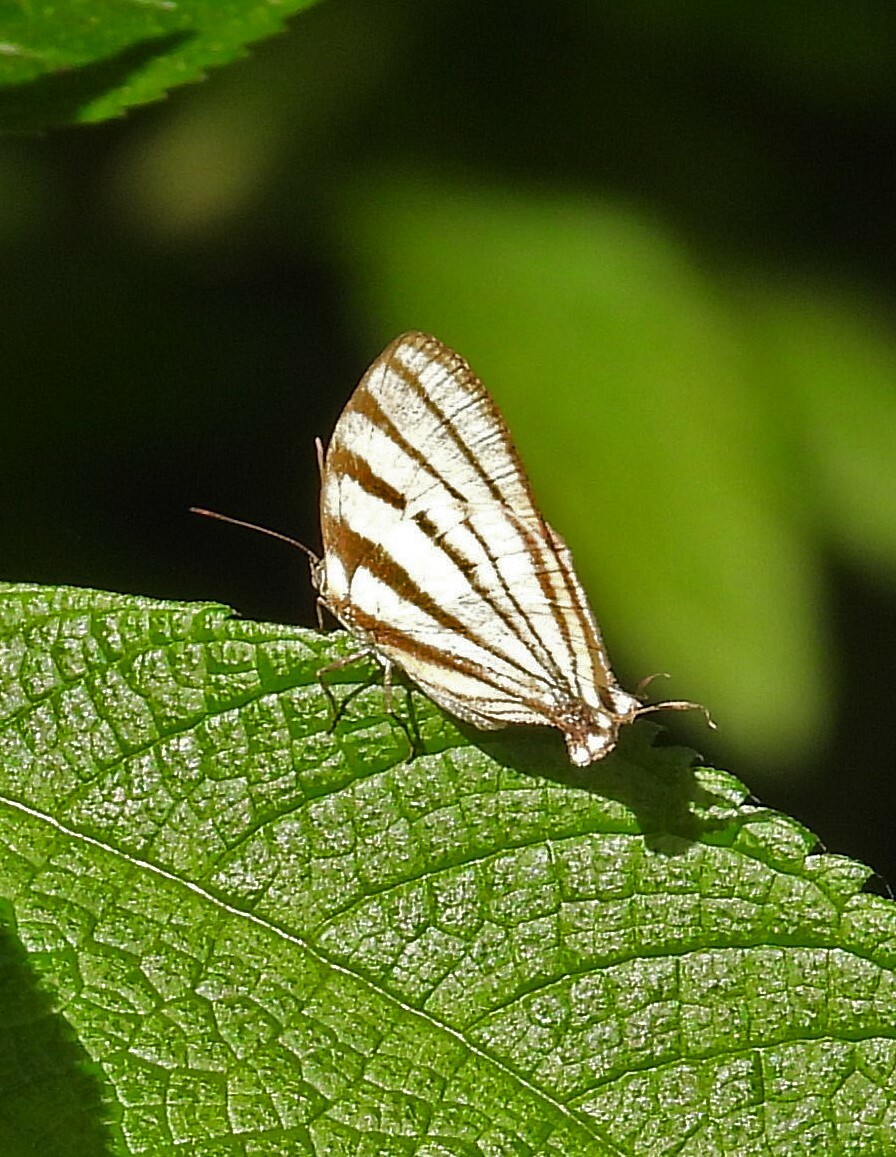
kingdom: Animalia
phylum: Arthropoda
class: Insecta
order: Lepidoptera
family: Lycaenidae
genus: Arawacus
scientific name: Arawacus separata
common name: Separated stripestreak
